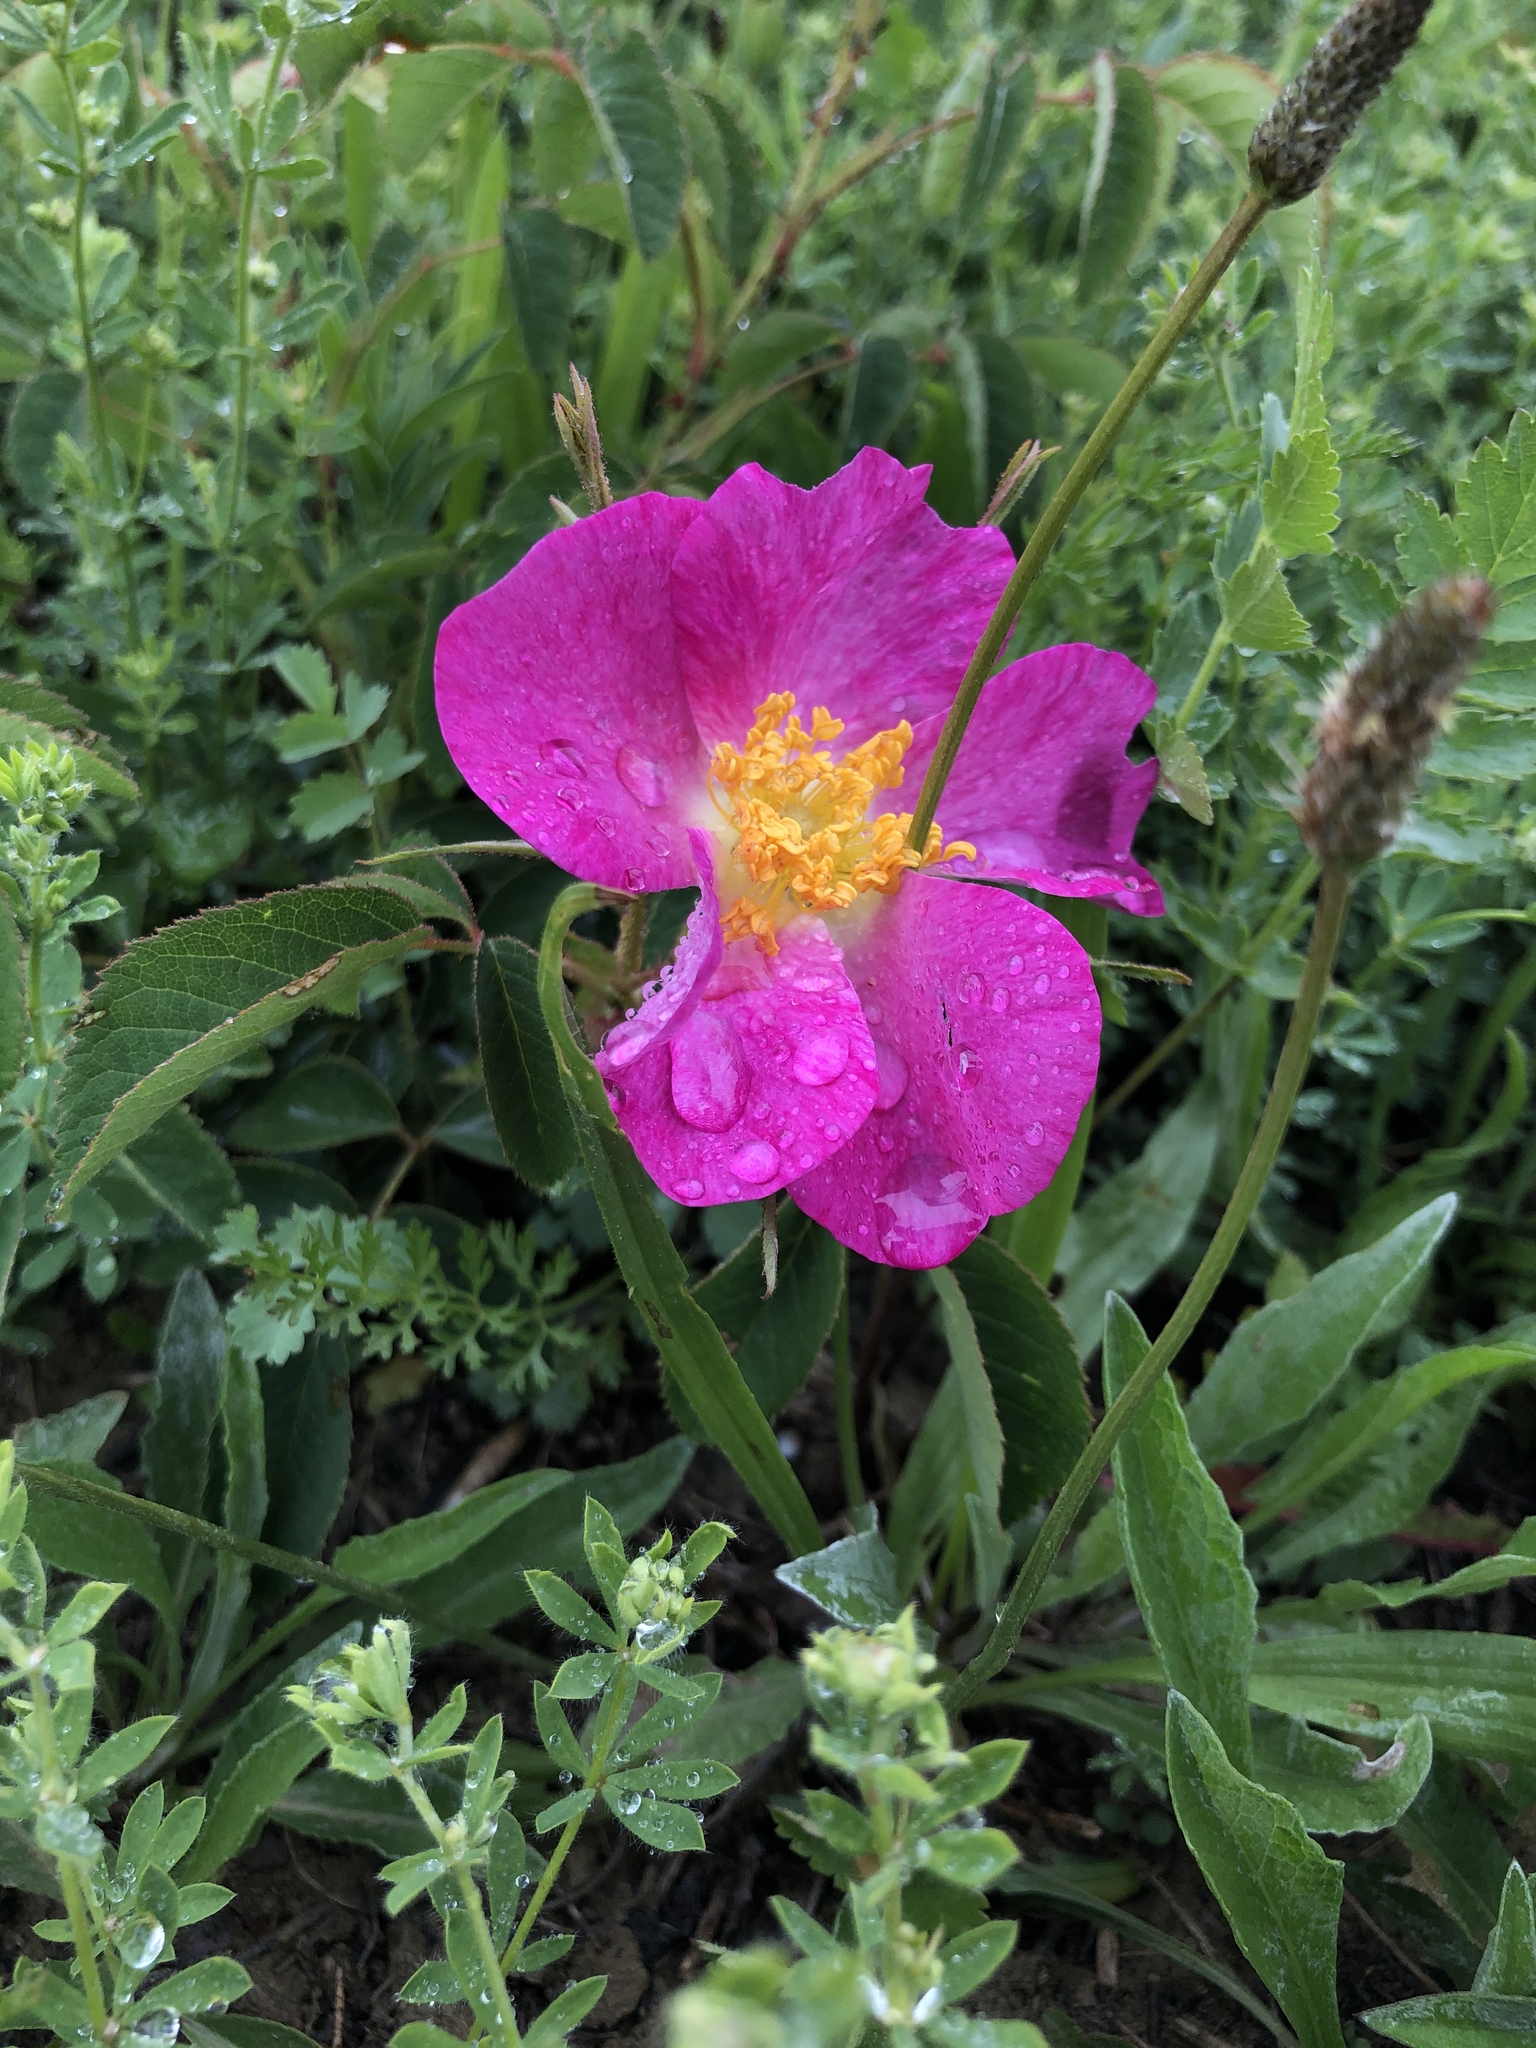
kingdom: Plantae
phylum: Tracheophyta
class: Magnoliopsida
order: Rosales
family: Rosaceae
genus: Rosa
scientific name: Rosa gallica
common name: French rose
